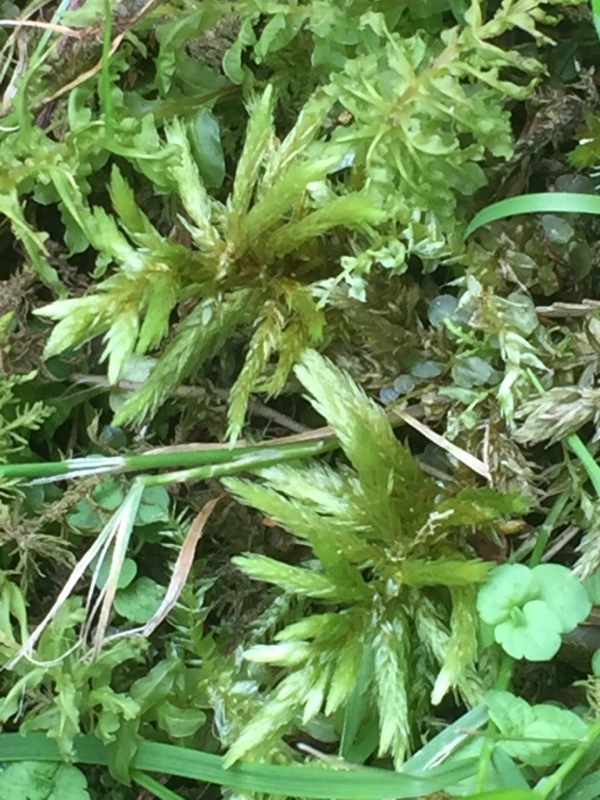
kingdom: Plantae
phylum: Bryophyta
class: Bryopsida
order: Hypnales
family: Climaciaceae
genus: Climacium
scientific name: Climacium dendroides
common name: Northern tree moss
